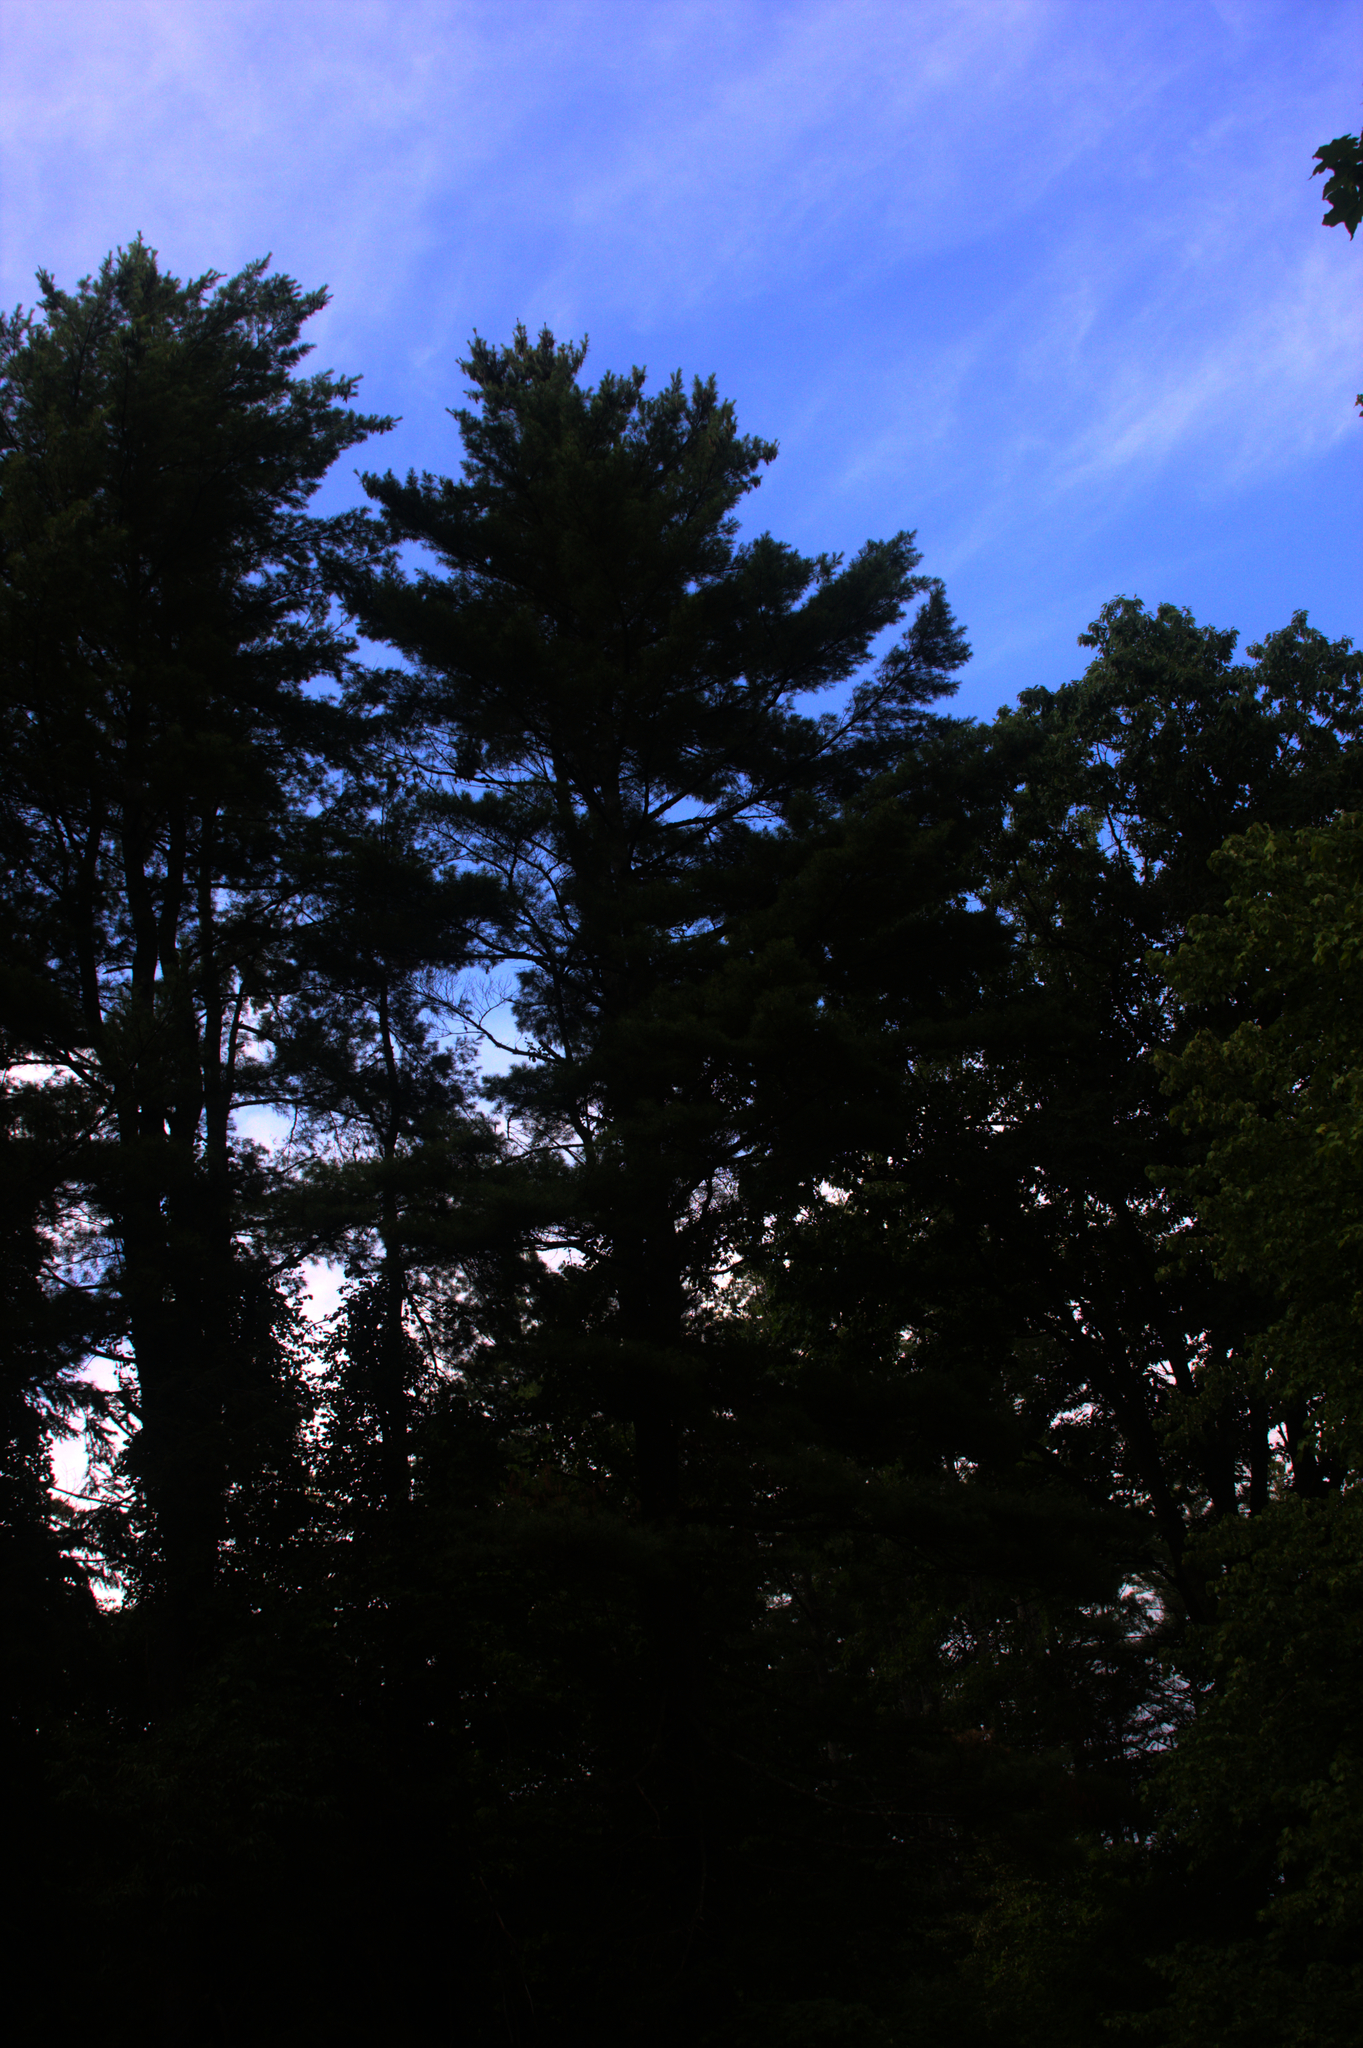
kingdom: Plantae
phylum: Tracheophyta
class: Pinopsida
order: Pinales
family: Pinaceae
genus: Pinus
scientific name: Pinus strobus
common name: Weymouth pine
